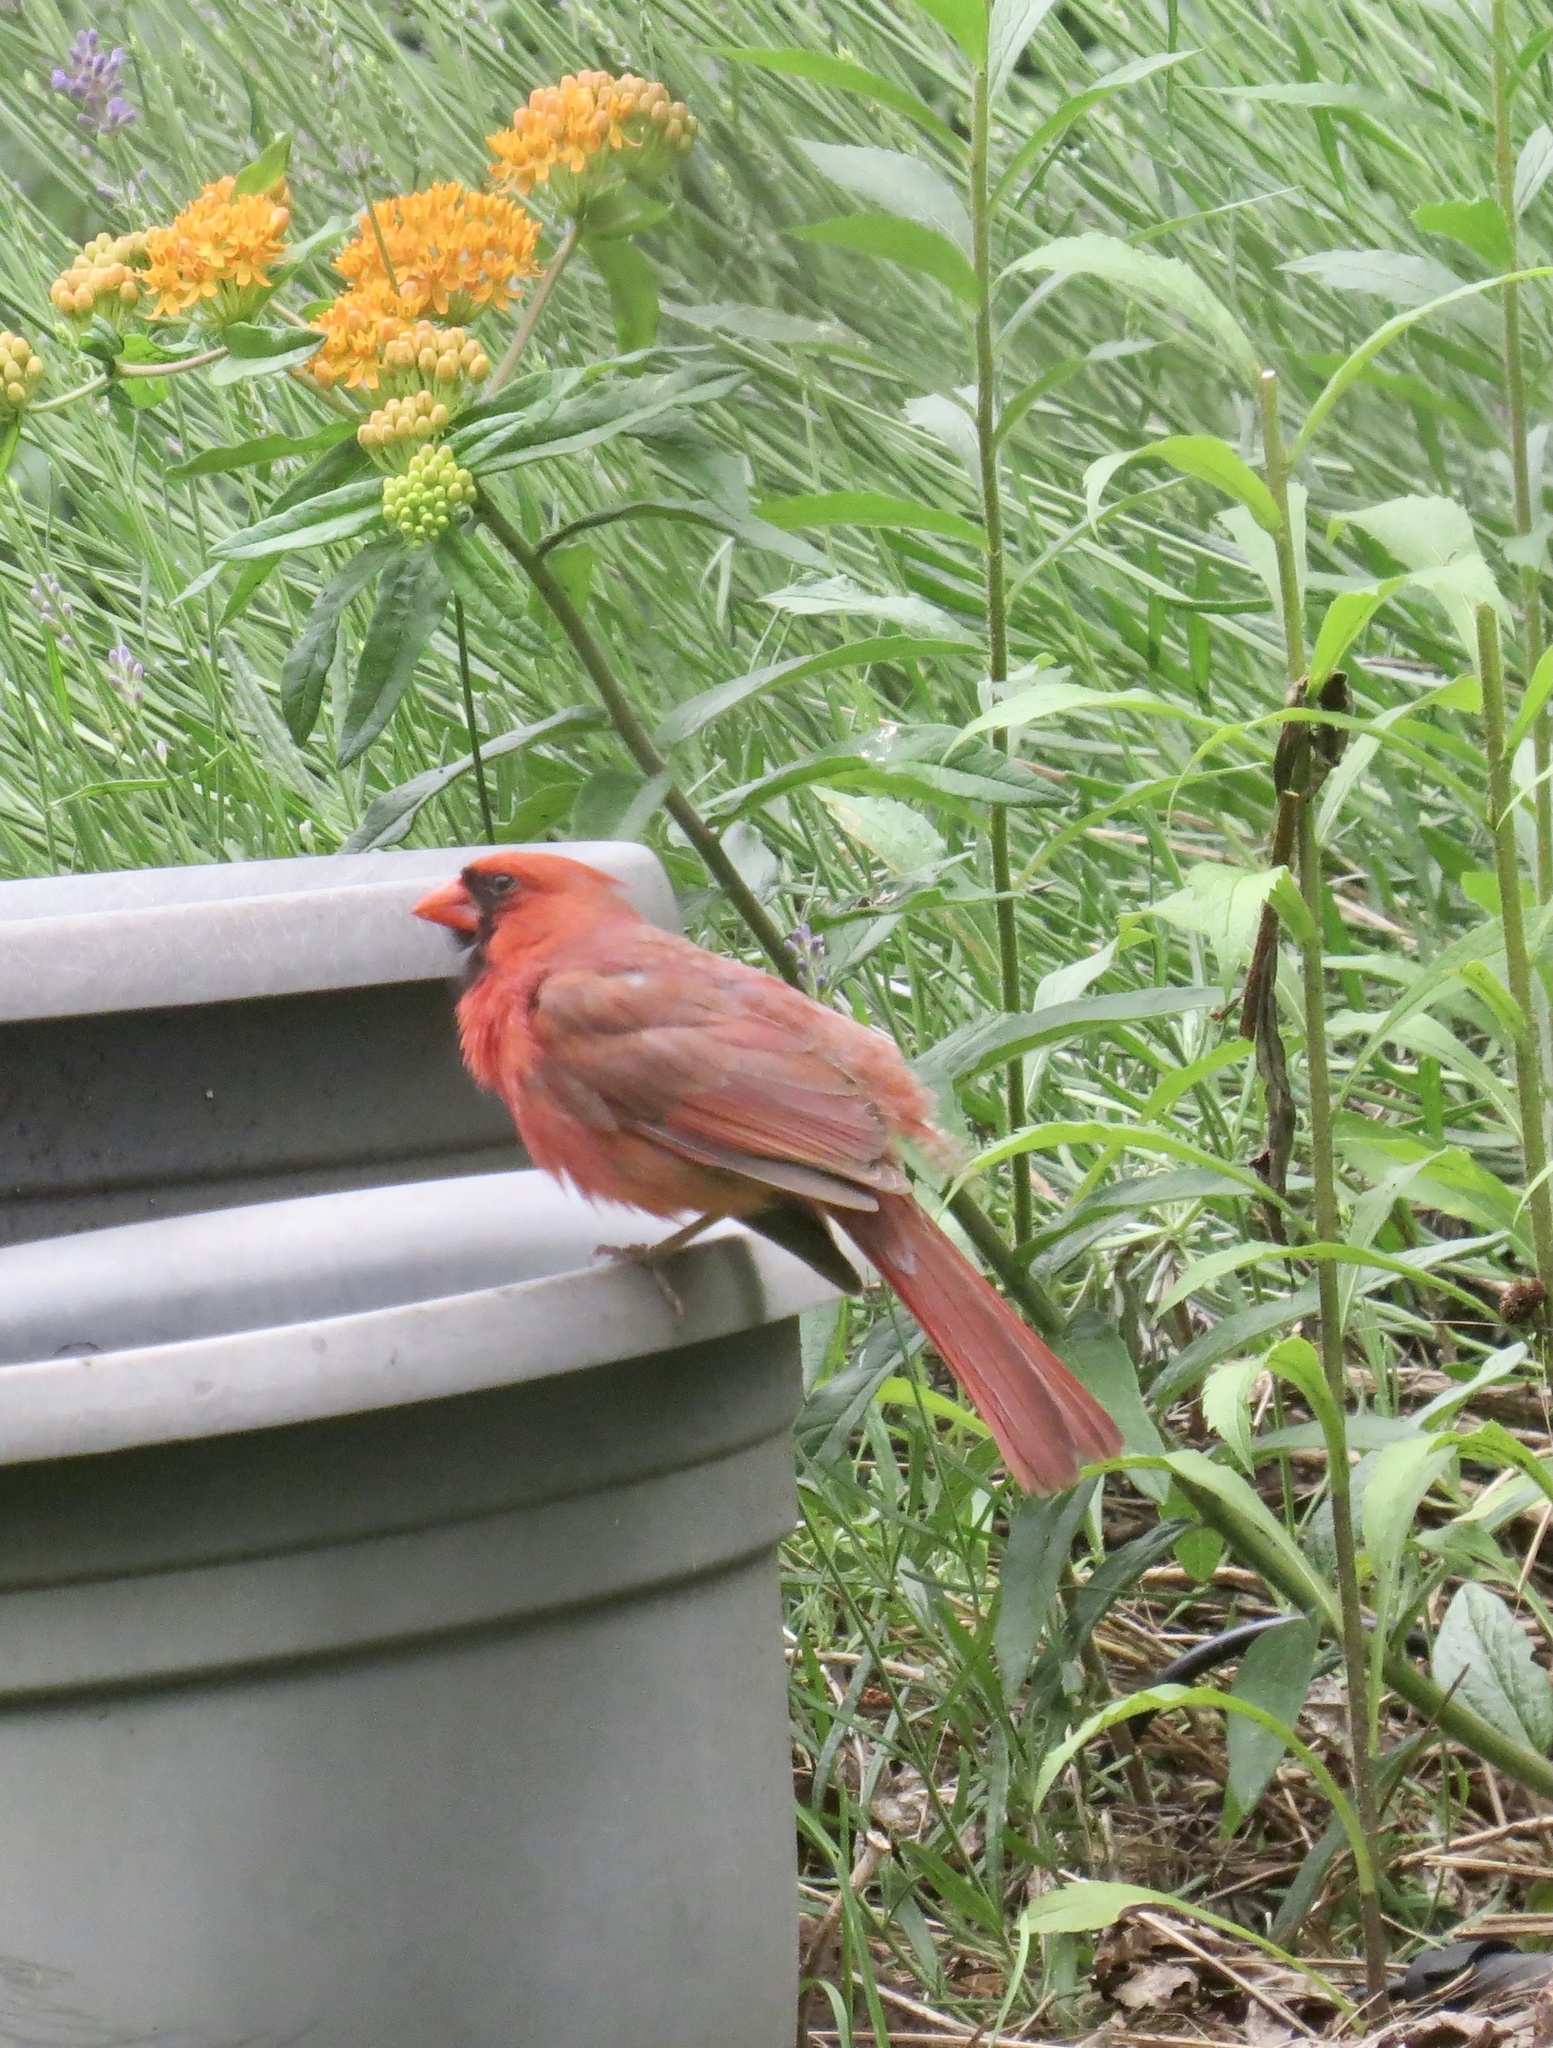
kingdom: Animalia
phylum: Chordata
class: Aves
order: Passeriformes
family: Cardinalidae
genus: Cardinalis
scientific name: Cardinalis cardinalis
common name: Northern cardinal
